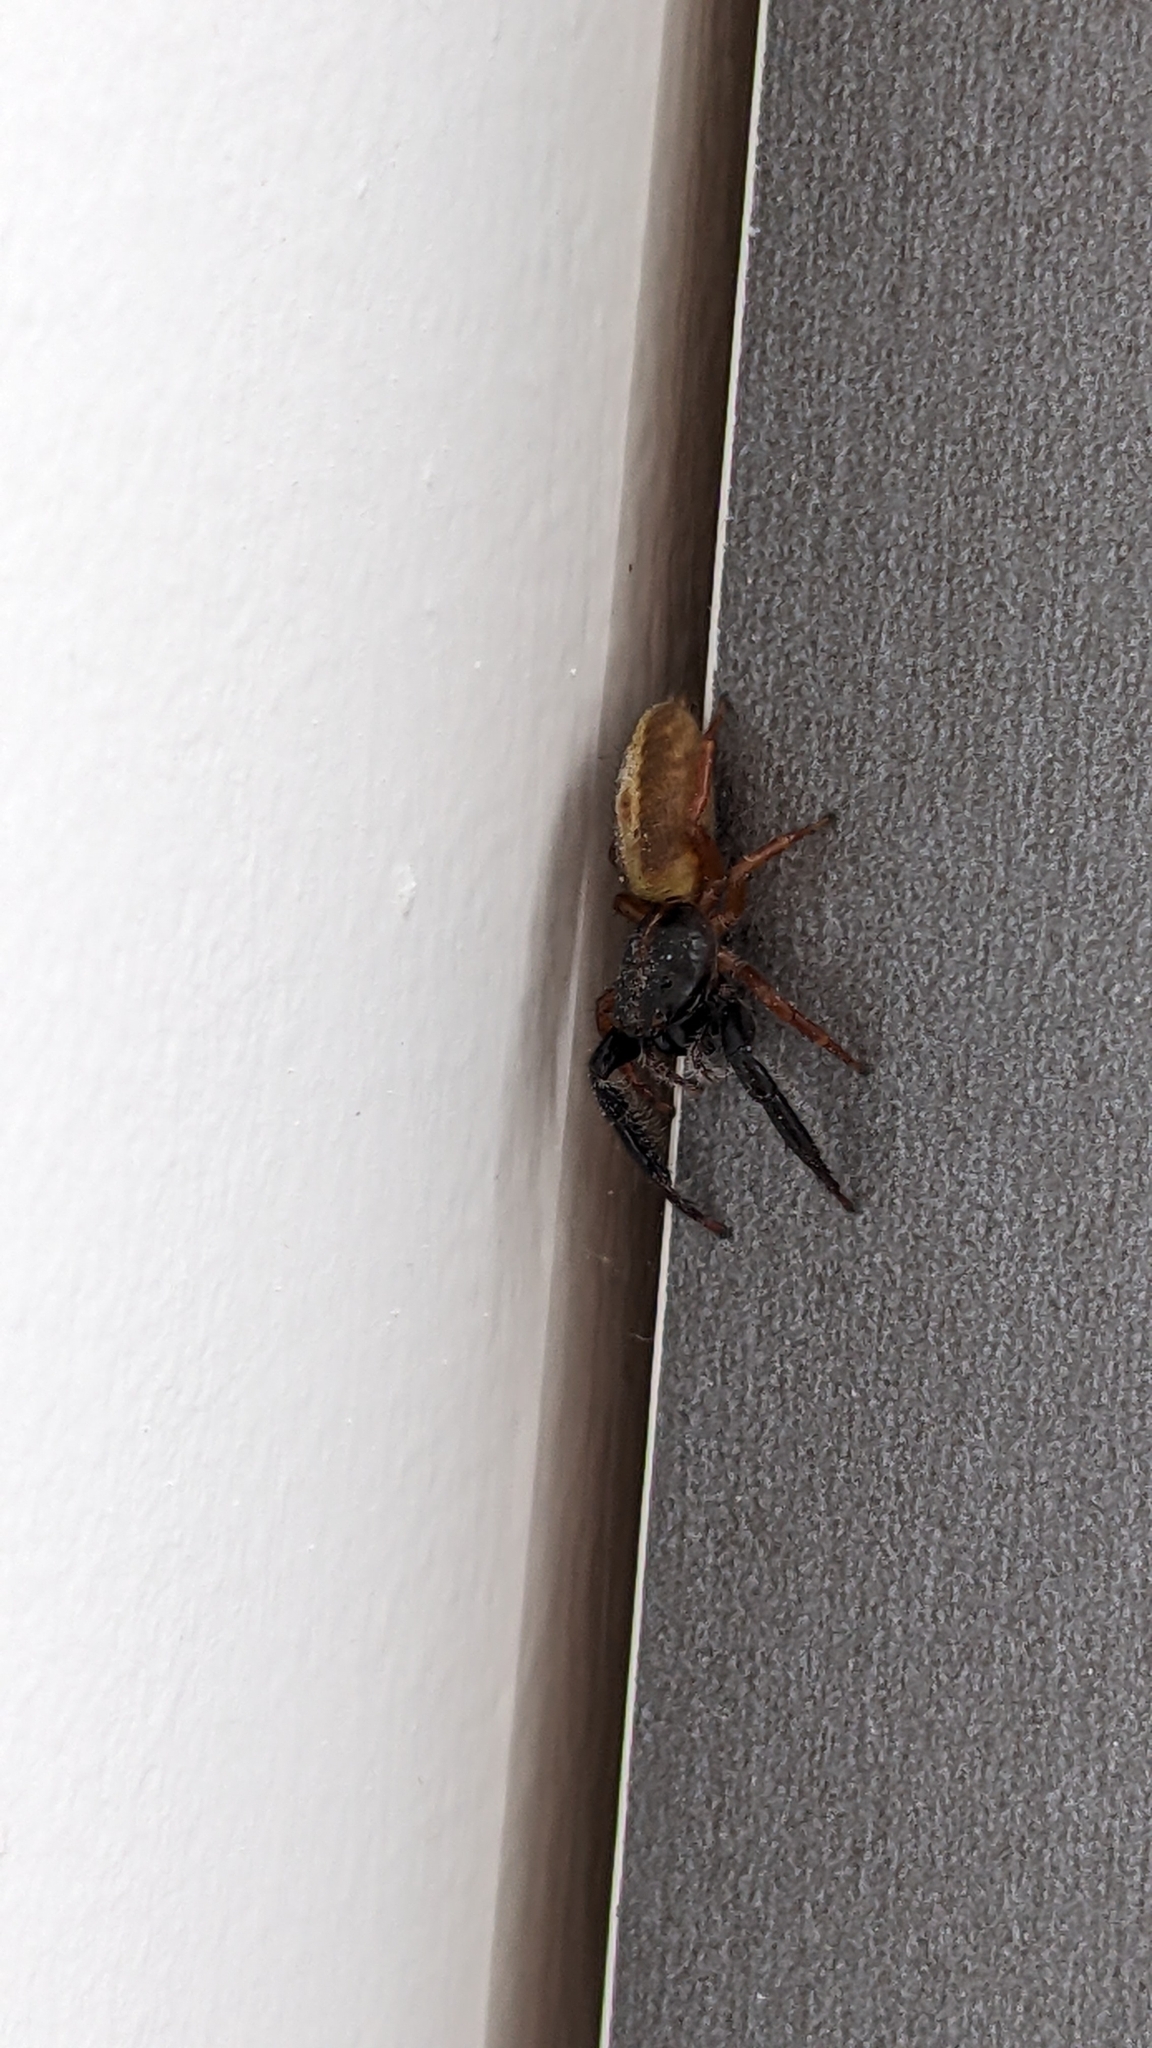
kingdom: Animalia
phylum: Arthropoda
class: Arachnida
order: Araneae
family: Salticidae
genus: Trite
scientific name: Trite planiceps
